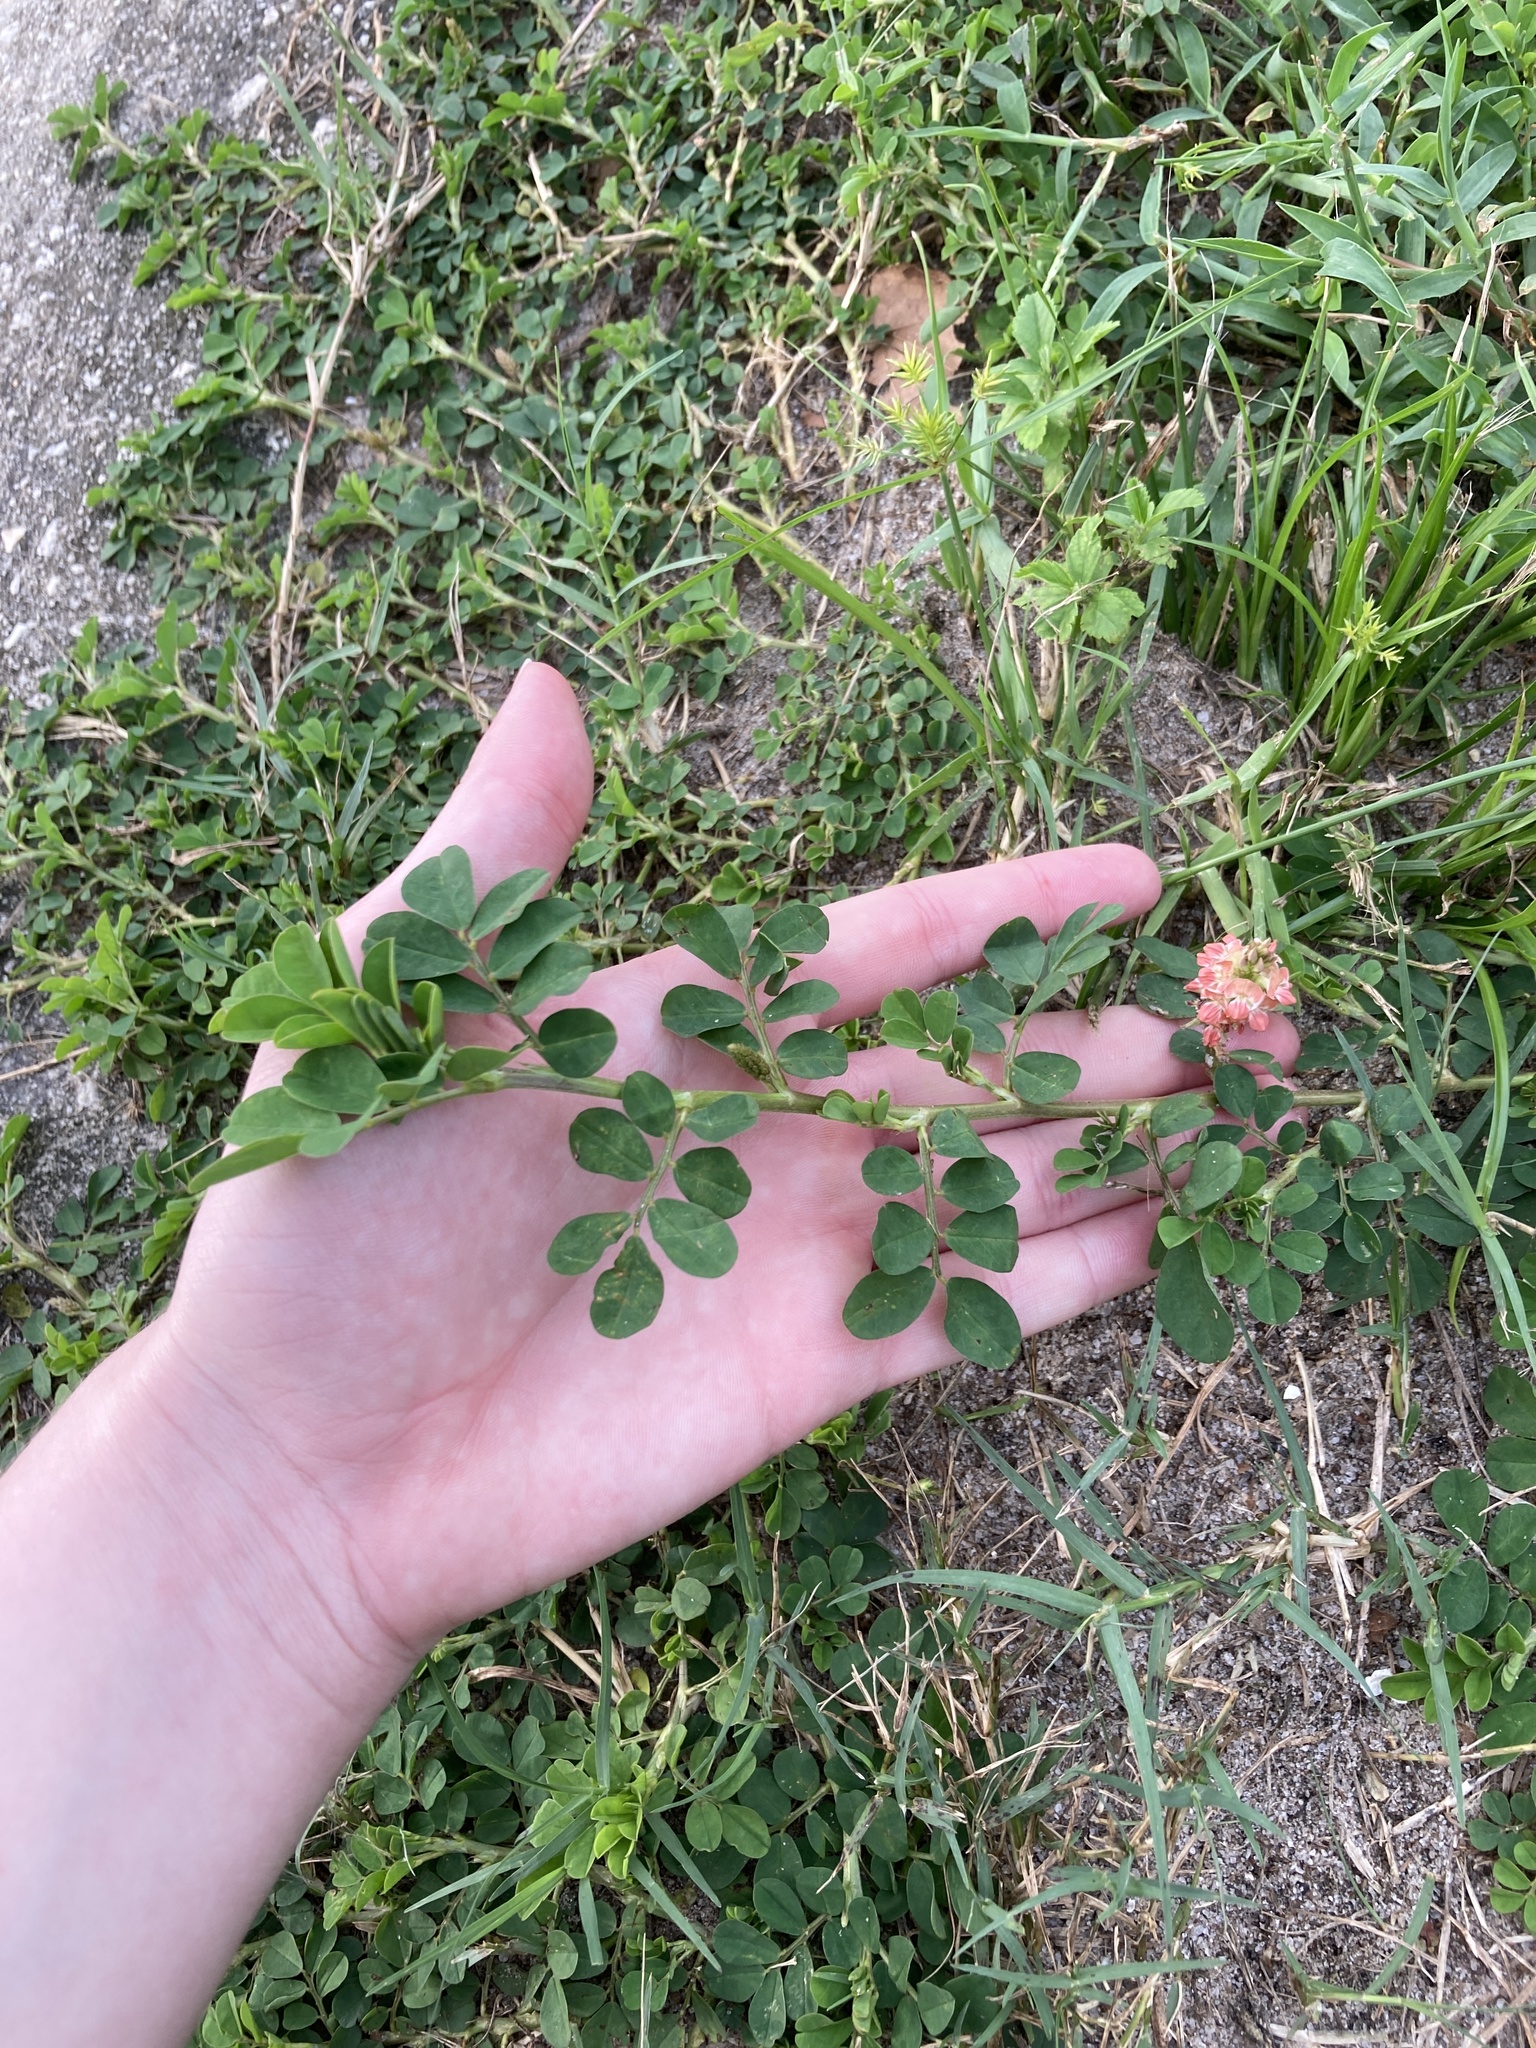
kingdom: Plantae
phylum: Tracheophyta
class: Magnoliopsida
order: Fabales
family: Fabaceae
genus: Indigofera
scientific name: Indigofera spicata
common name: Creeping indigo
